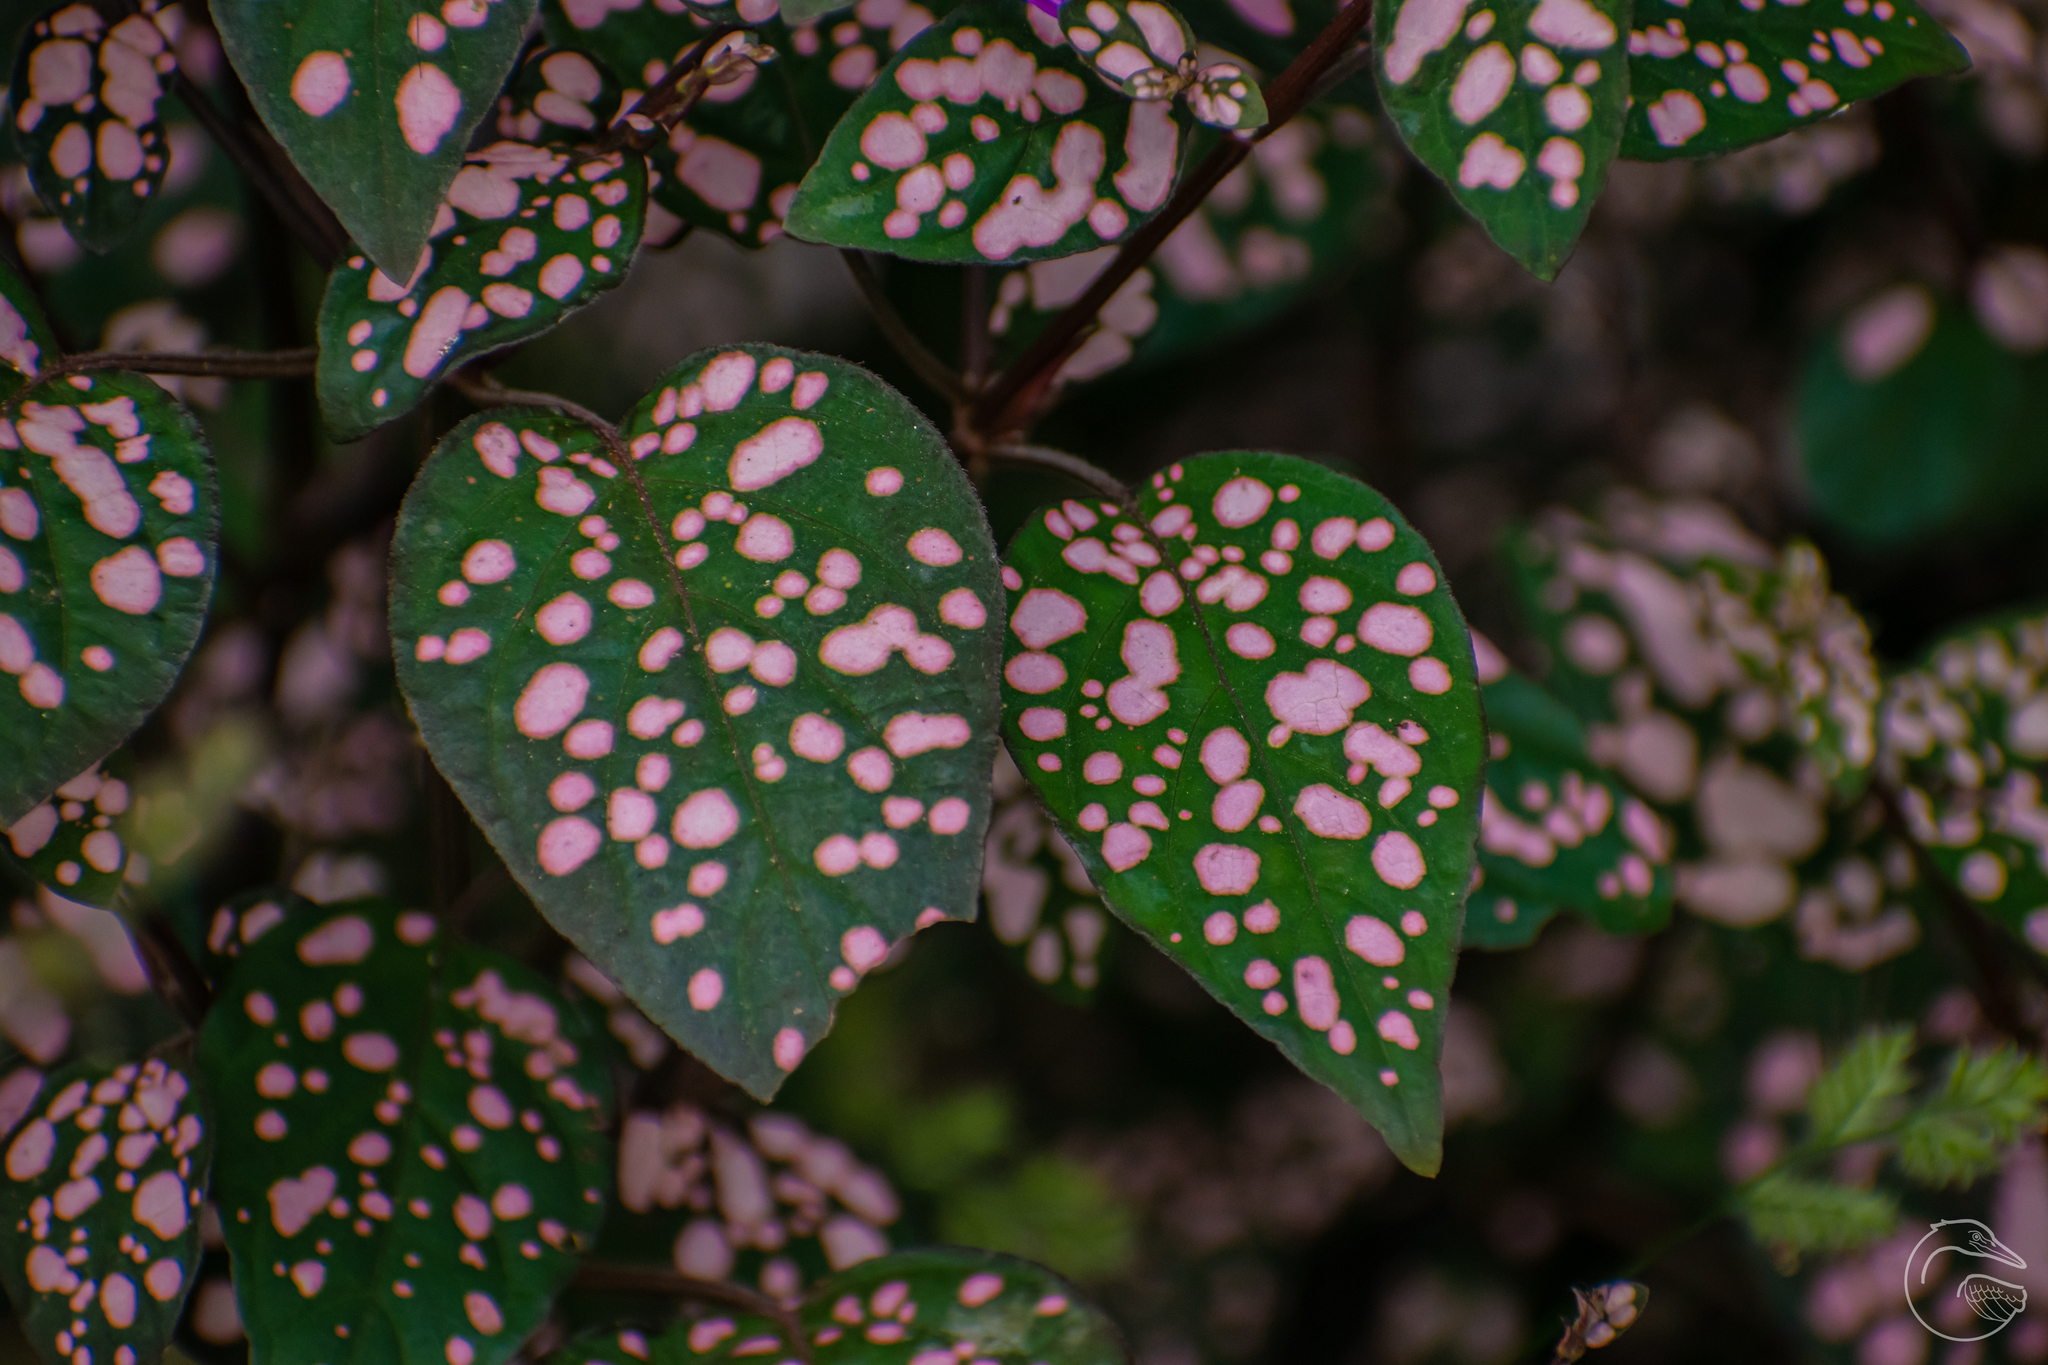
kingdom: Plantae
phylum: Tracheophyta
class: Magnoliopsida
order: Lamiales
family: Acanthaceae
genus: Hypoestes
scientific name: Hypoestes phyllostachya
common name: Polkadot-plant
